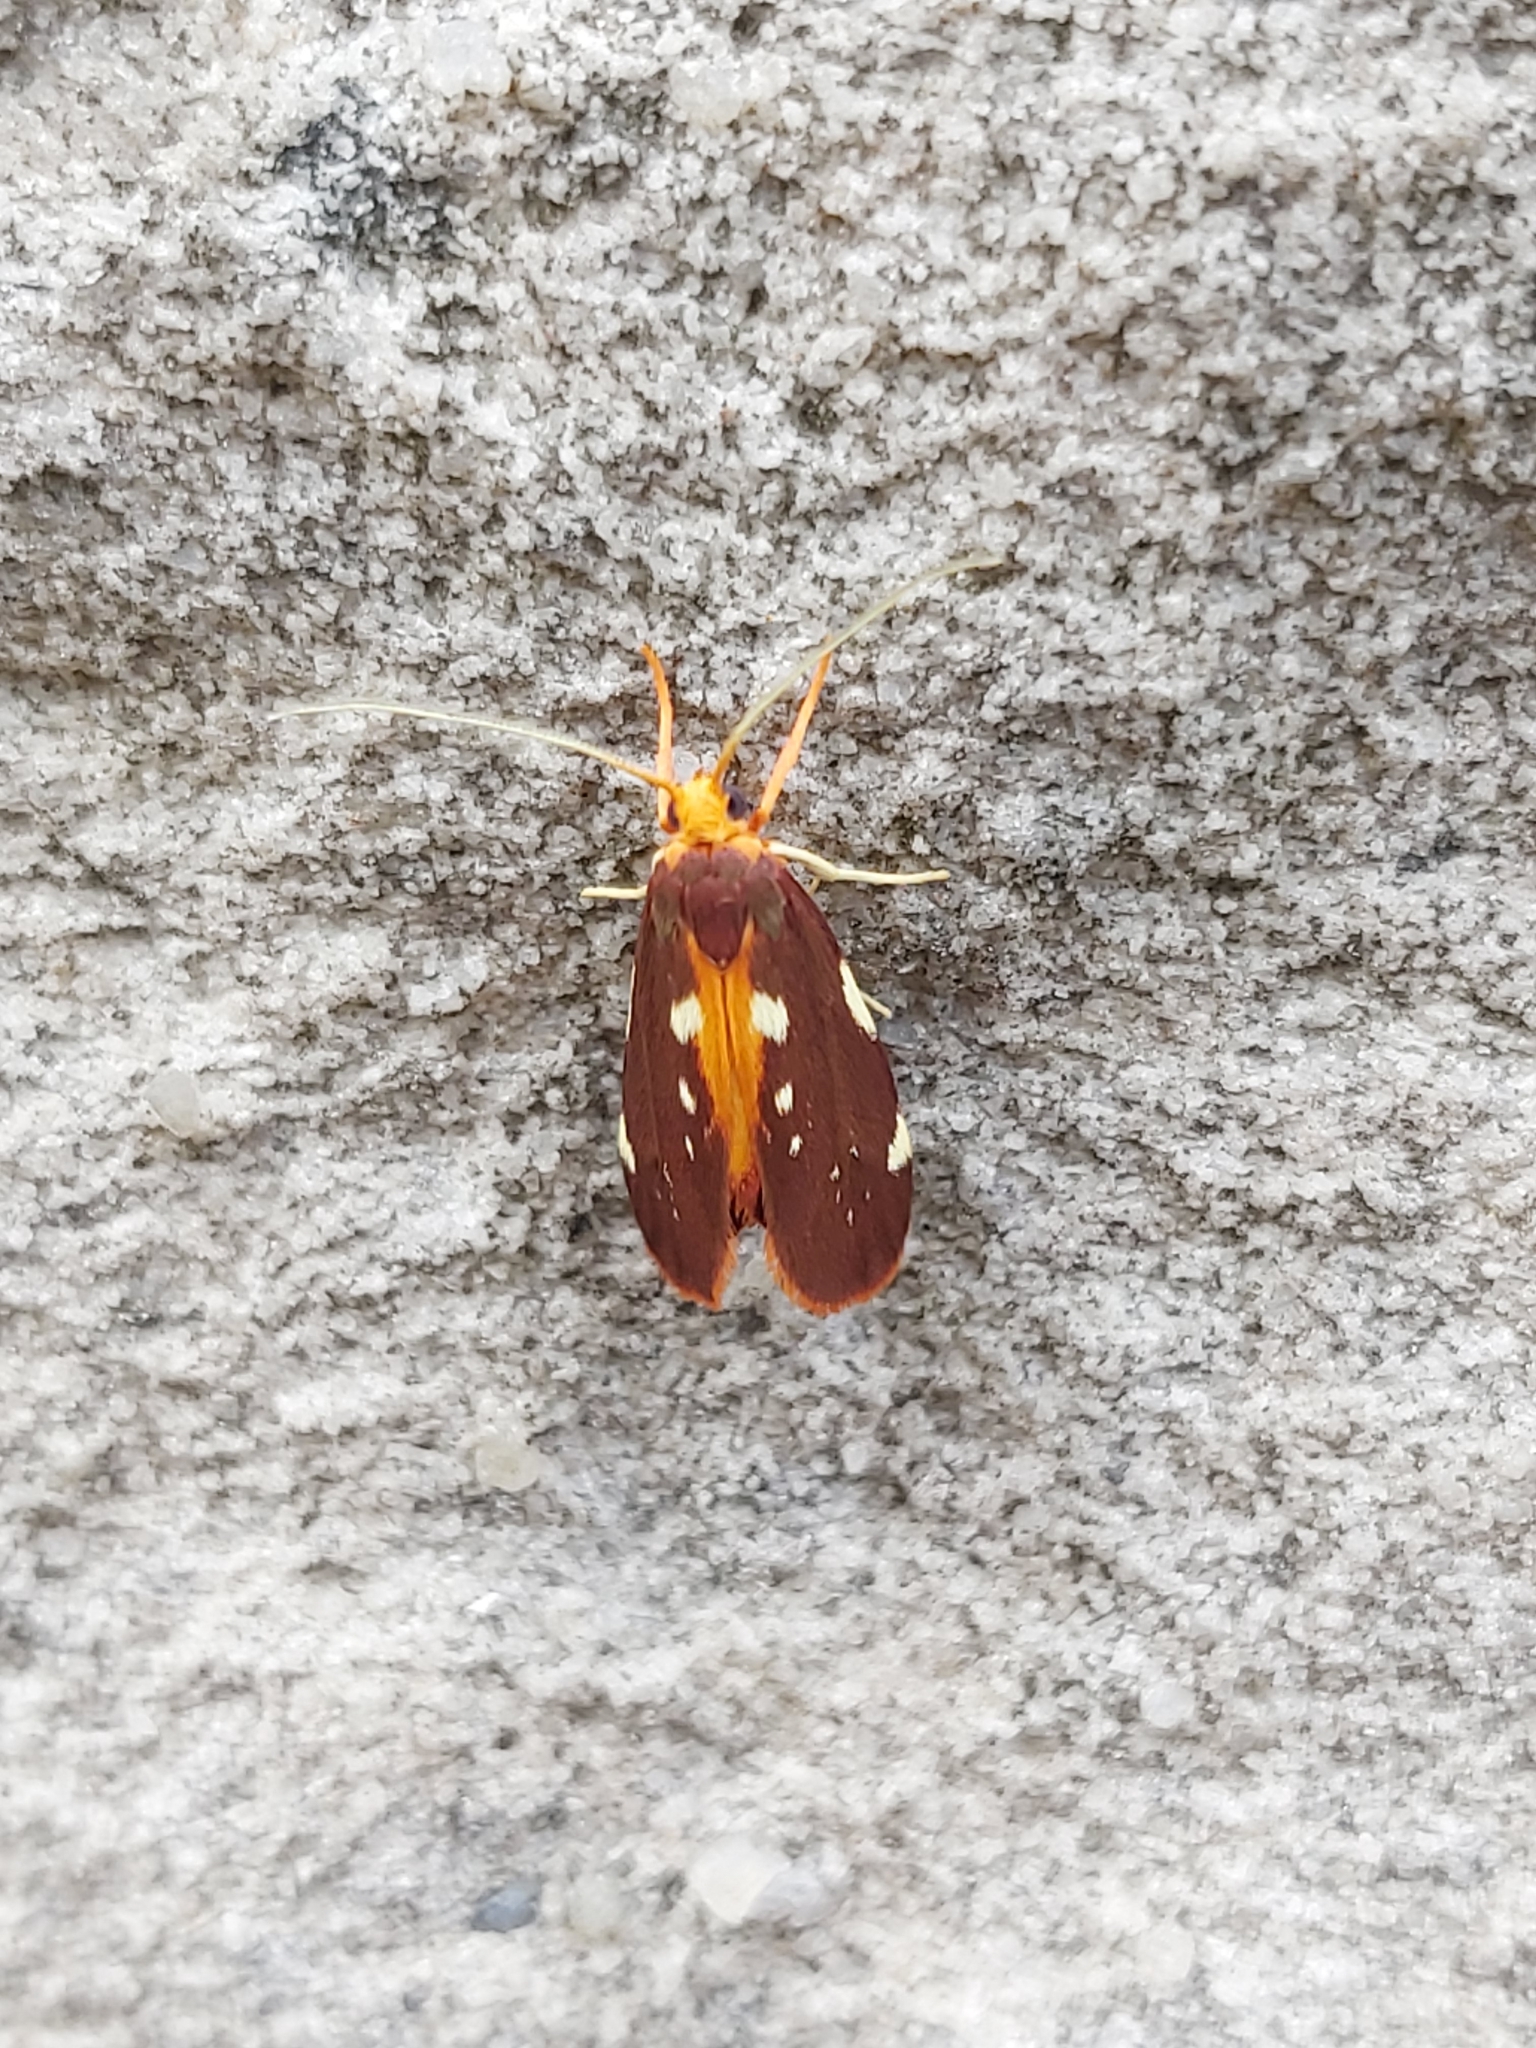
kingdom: Animalia
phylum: Arthropoda
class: Insecta
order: Lepidoptera
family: Lacturidae
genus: Lactura
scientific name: Lactura caminaea
